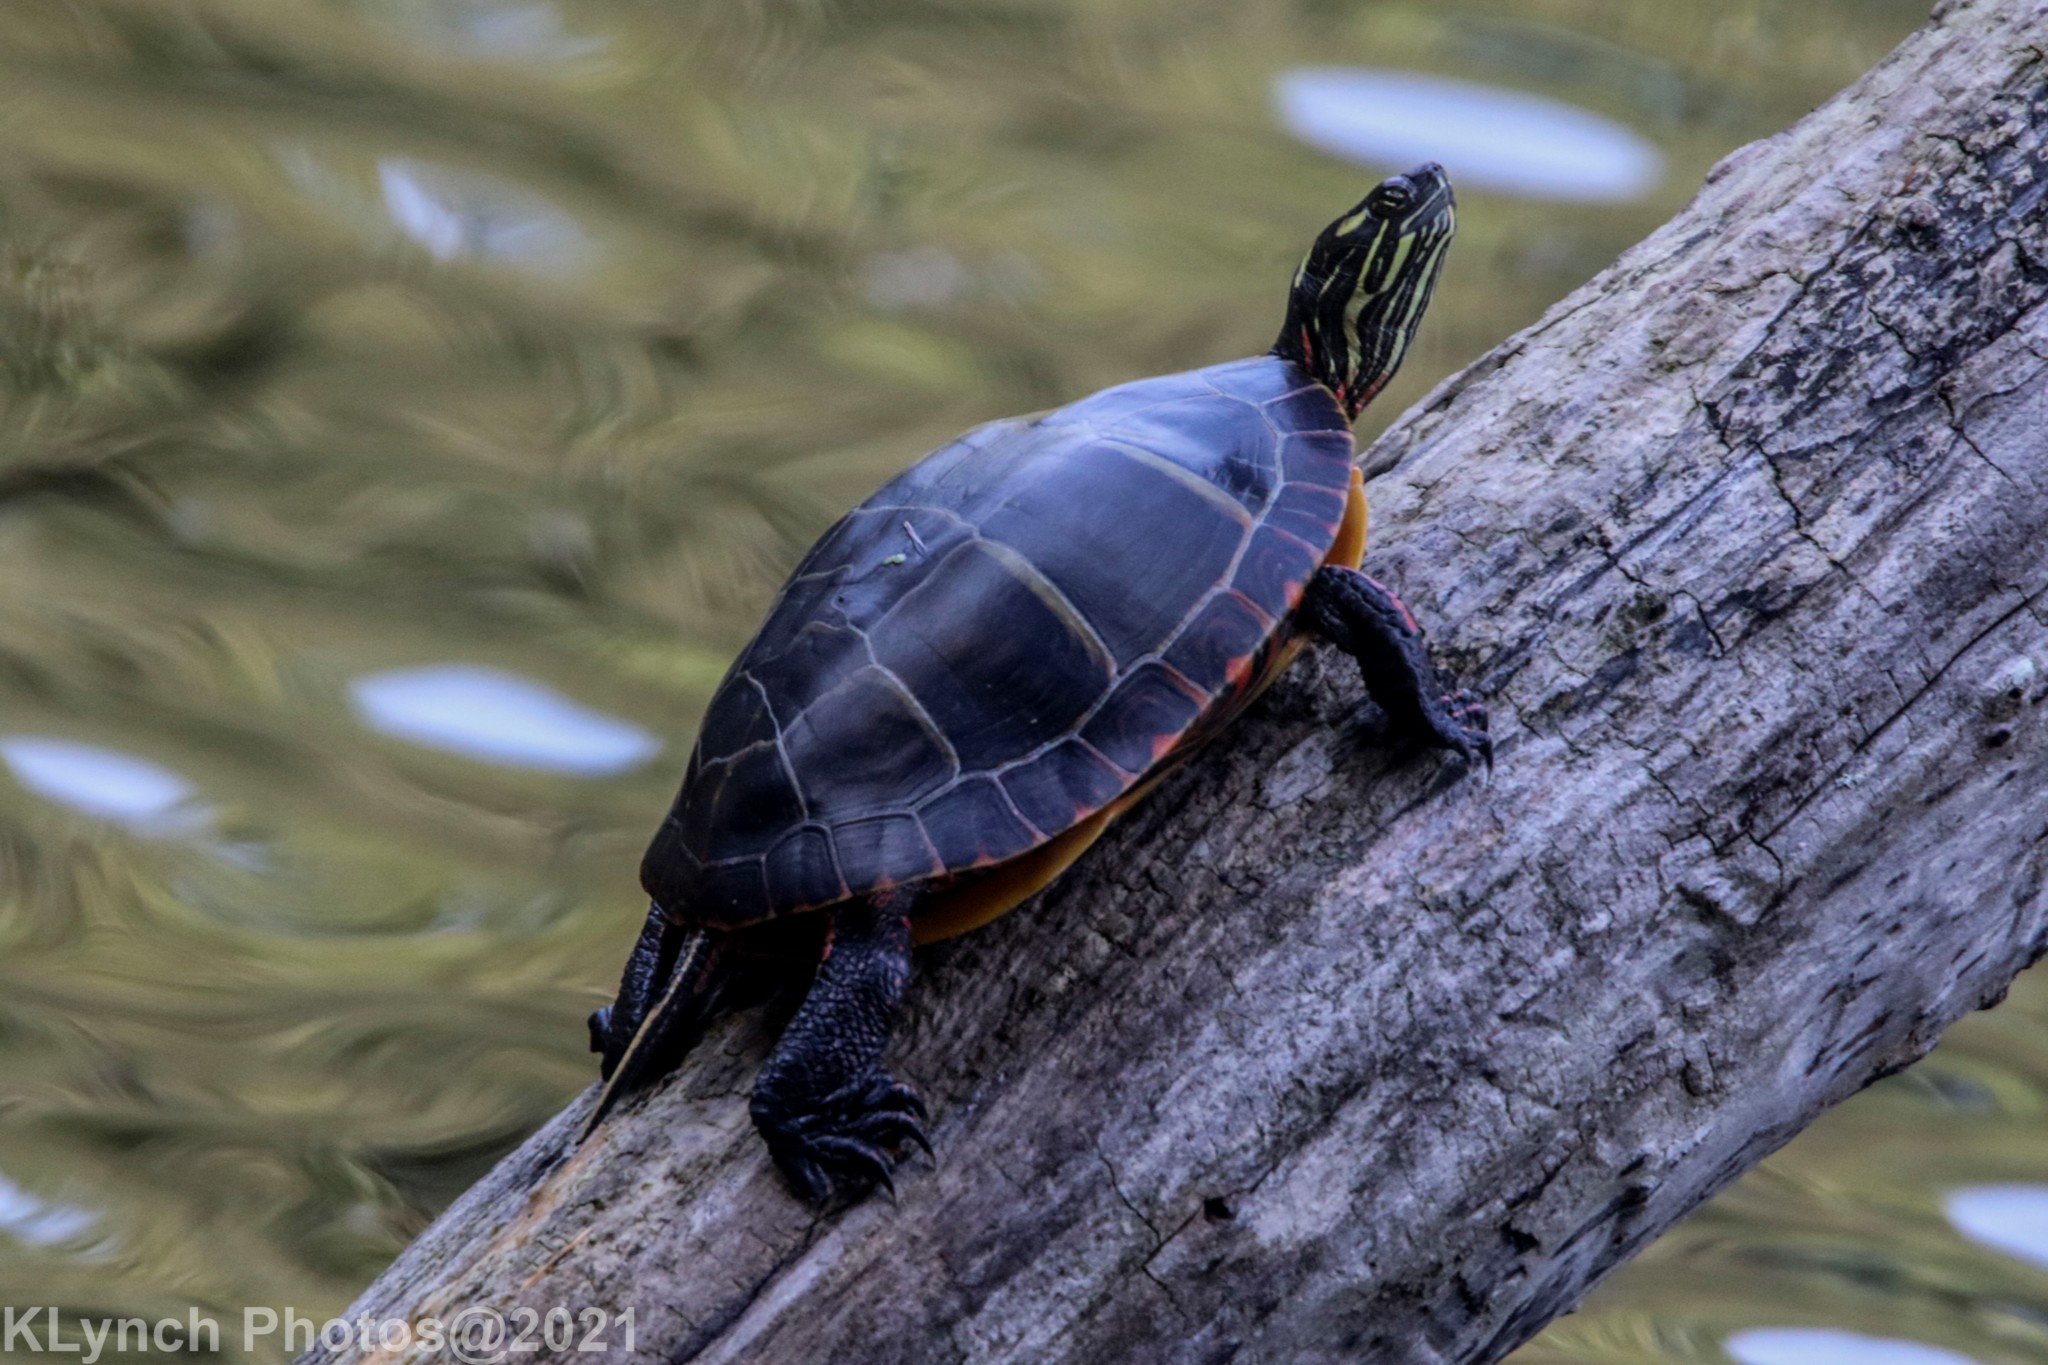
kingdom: Animalia
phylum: Chordata
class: Testudines
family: Emydidae
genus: Chrysemys
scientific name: Chrysemys picta
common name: Painted turtle
